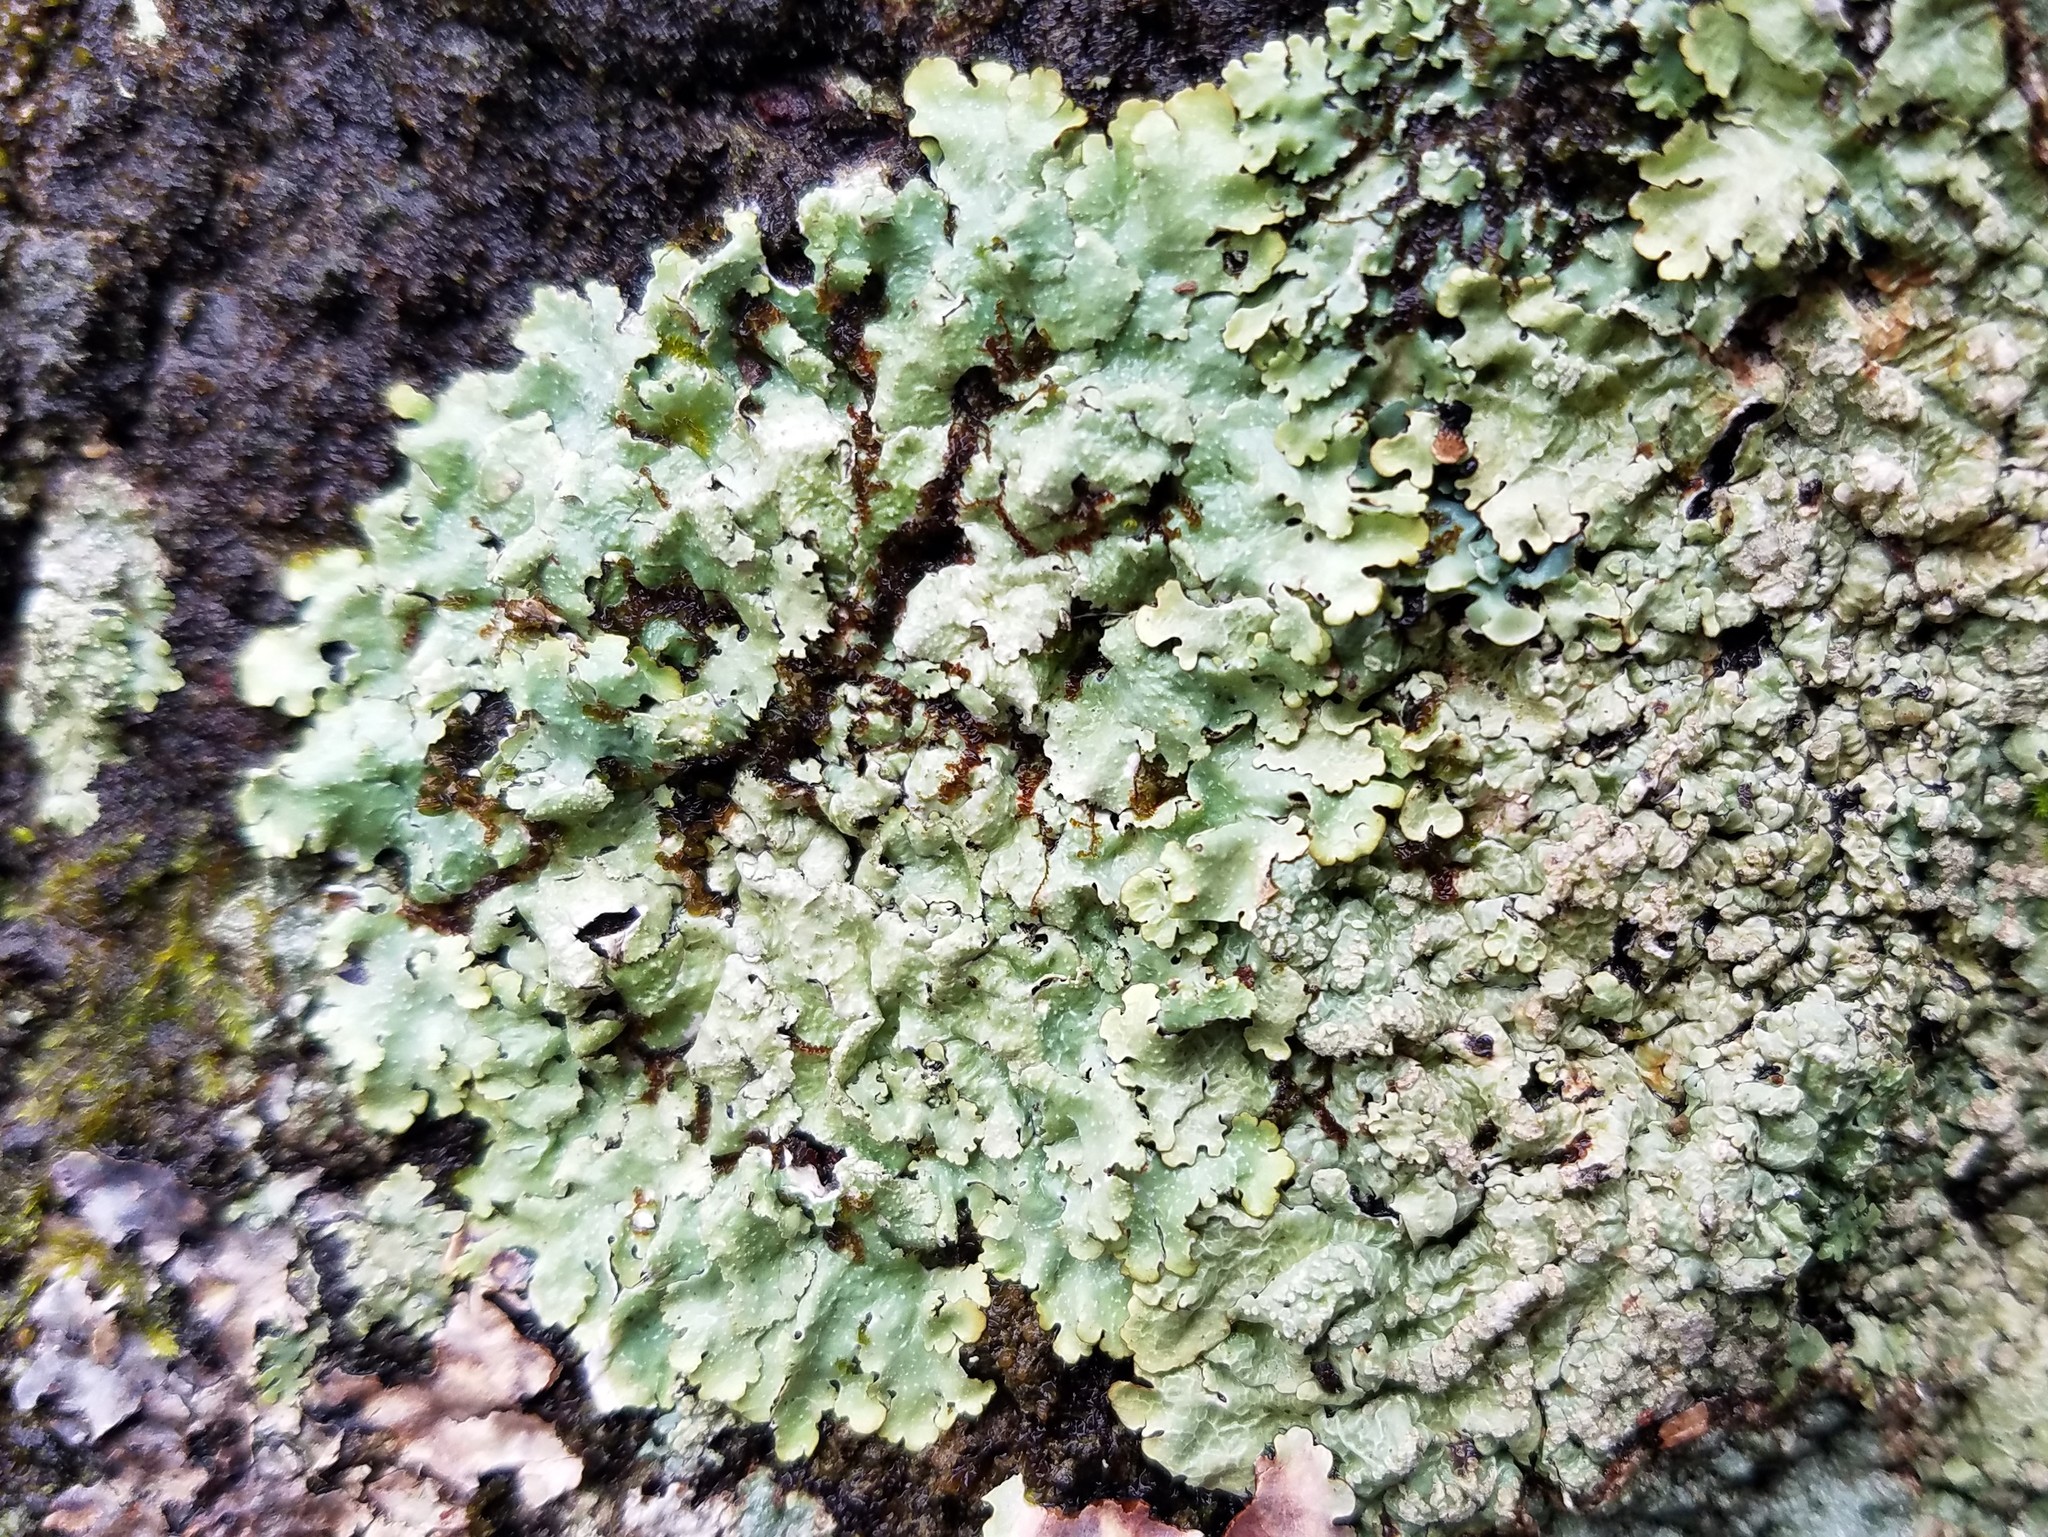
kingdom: Fungi
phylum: Ascomycota
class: Lecanoromycetes
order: Lecanorales
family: Parmeliaceae
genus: Punctelia
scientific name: Punctelia rudecta
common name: Rough speckled shield lichen
